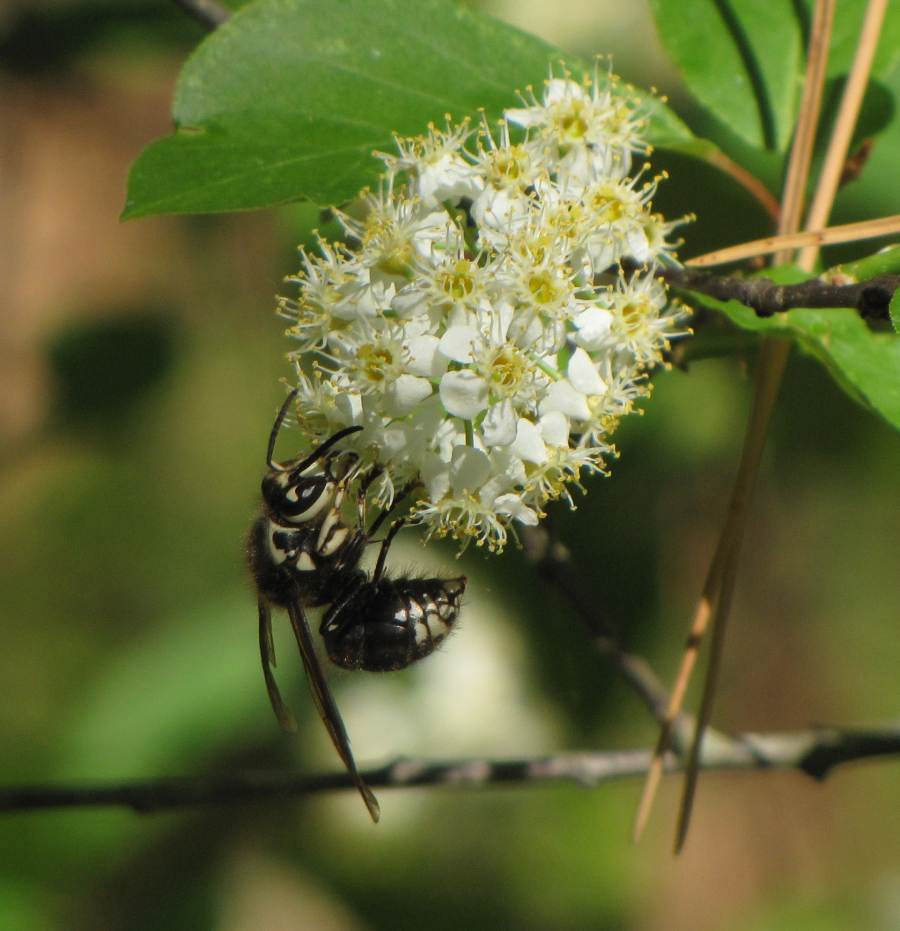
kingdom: Animalia
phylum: Arthropoda
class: Insecta
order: Hymenoptera
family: Vespidae
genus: Dolichovespula
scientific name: Dolichovespula maculata
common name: Bald-faced hornet
